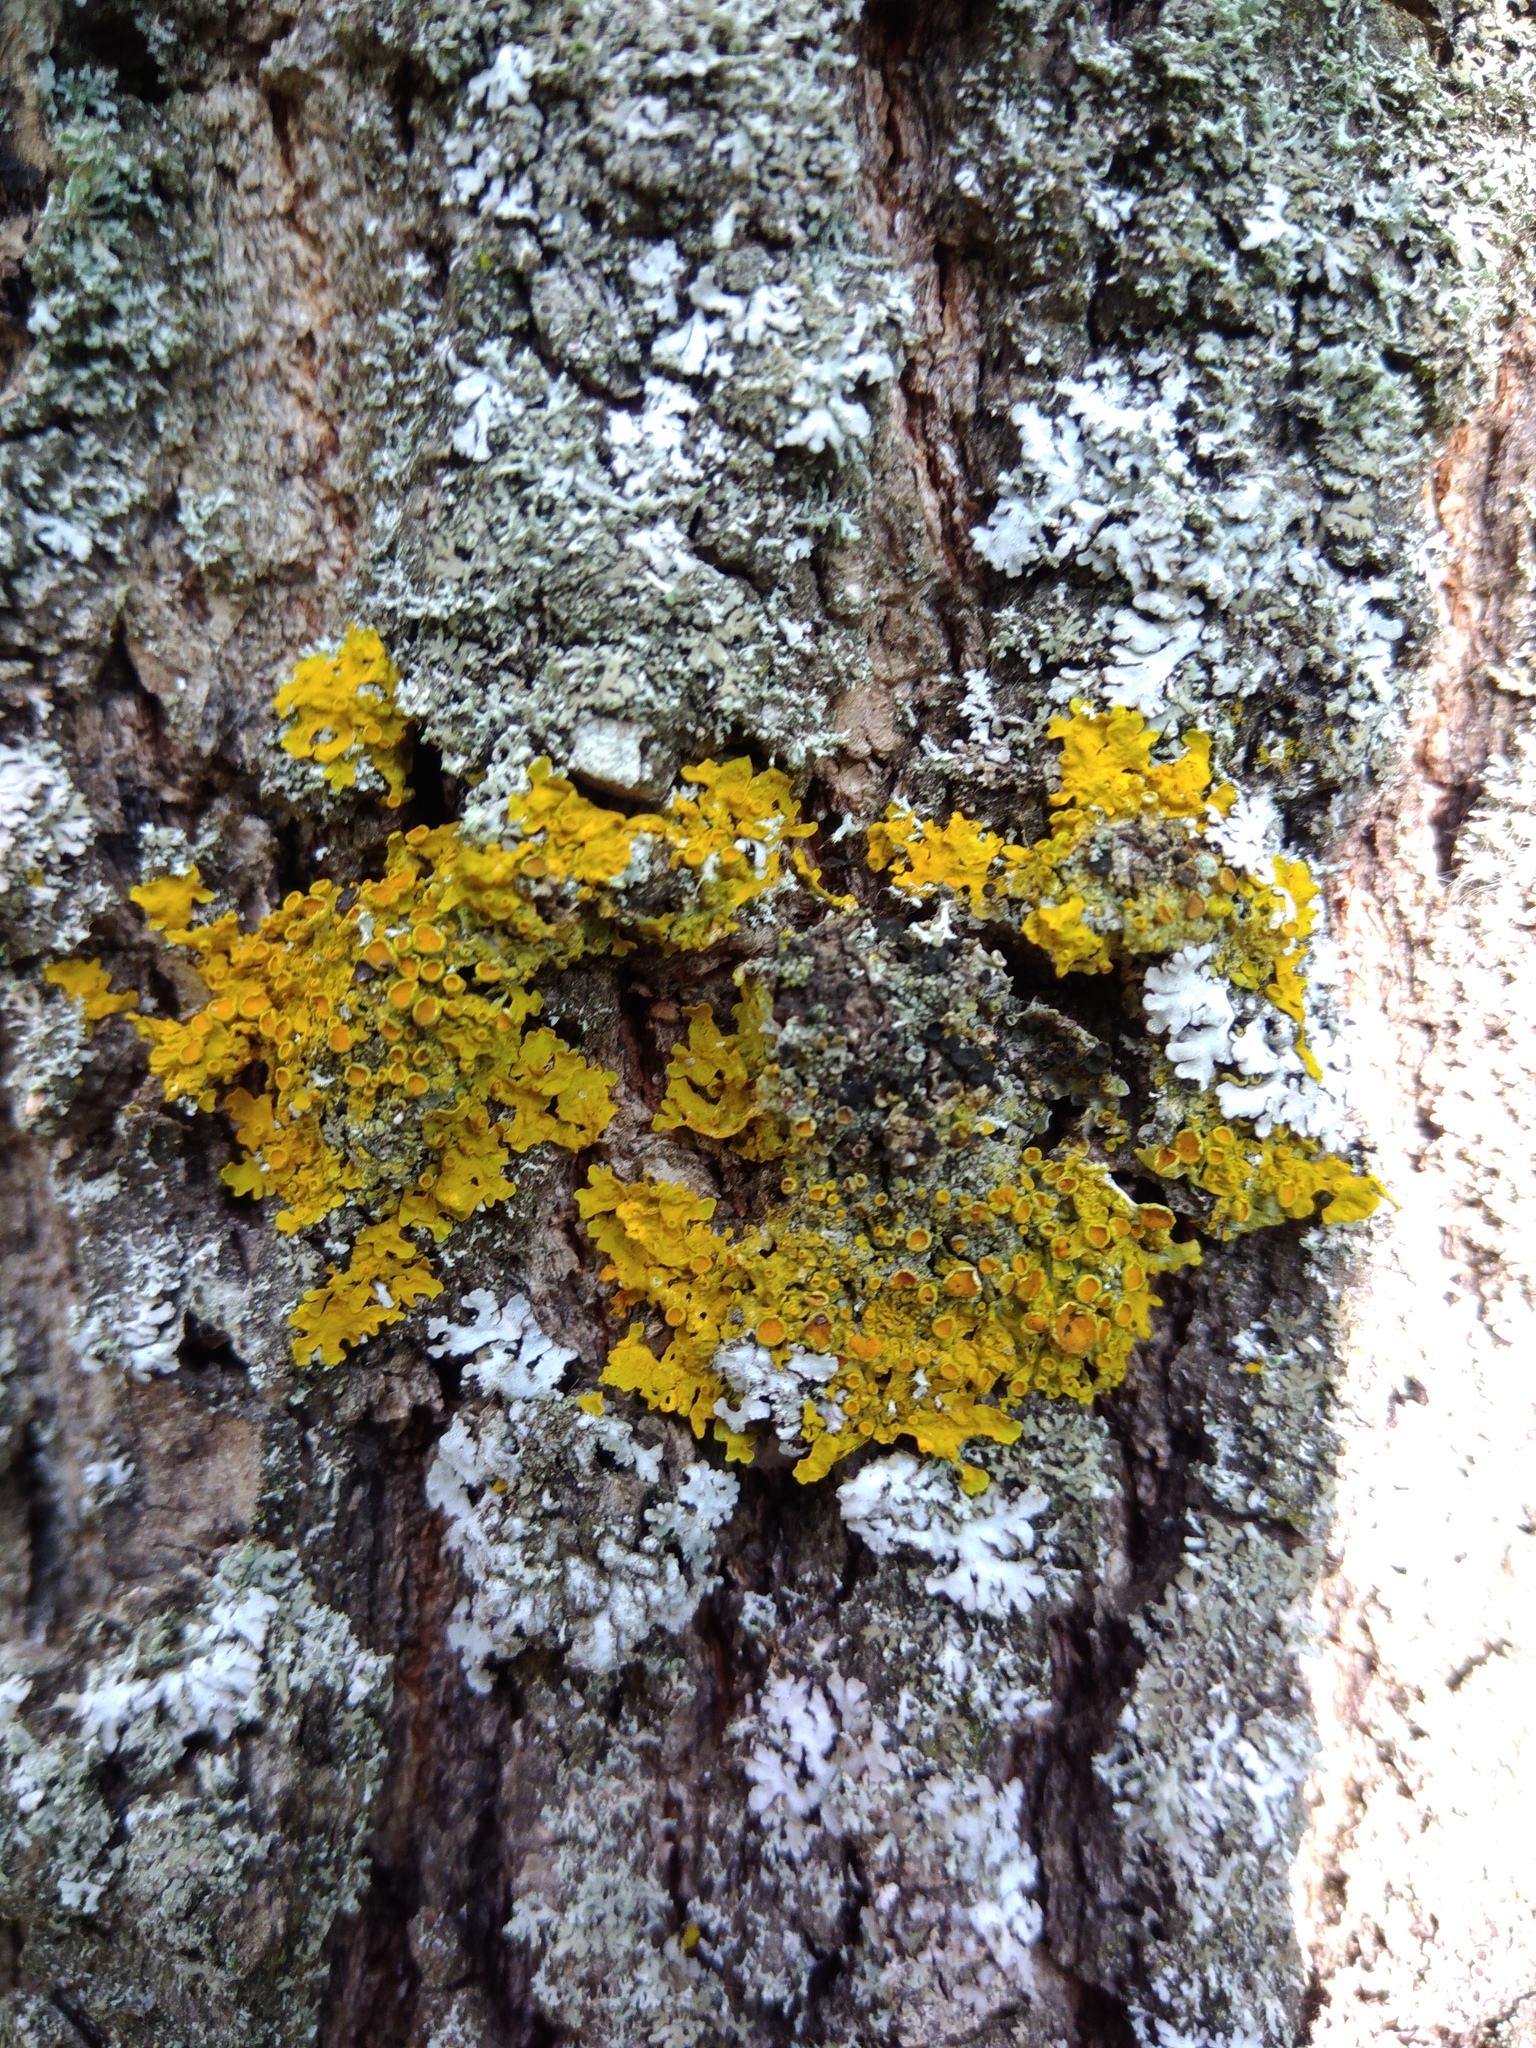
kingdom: Fungi
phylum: Ascomycota
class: Lecanoromycetes
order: Teloschistales
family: Teloschistaceae
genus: Xanthoria
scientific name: Xanthoria parietina
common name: Common orange lichen
